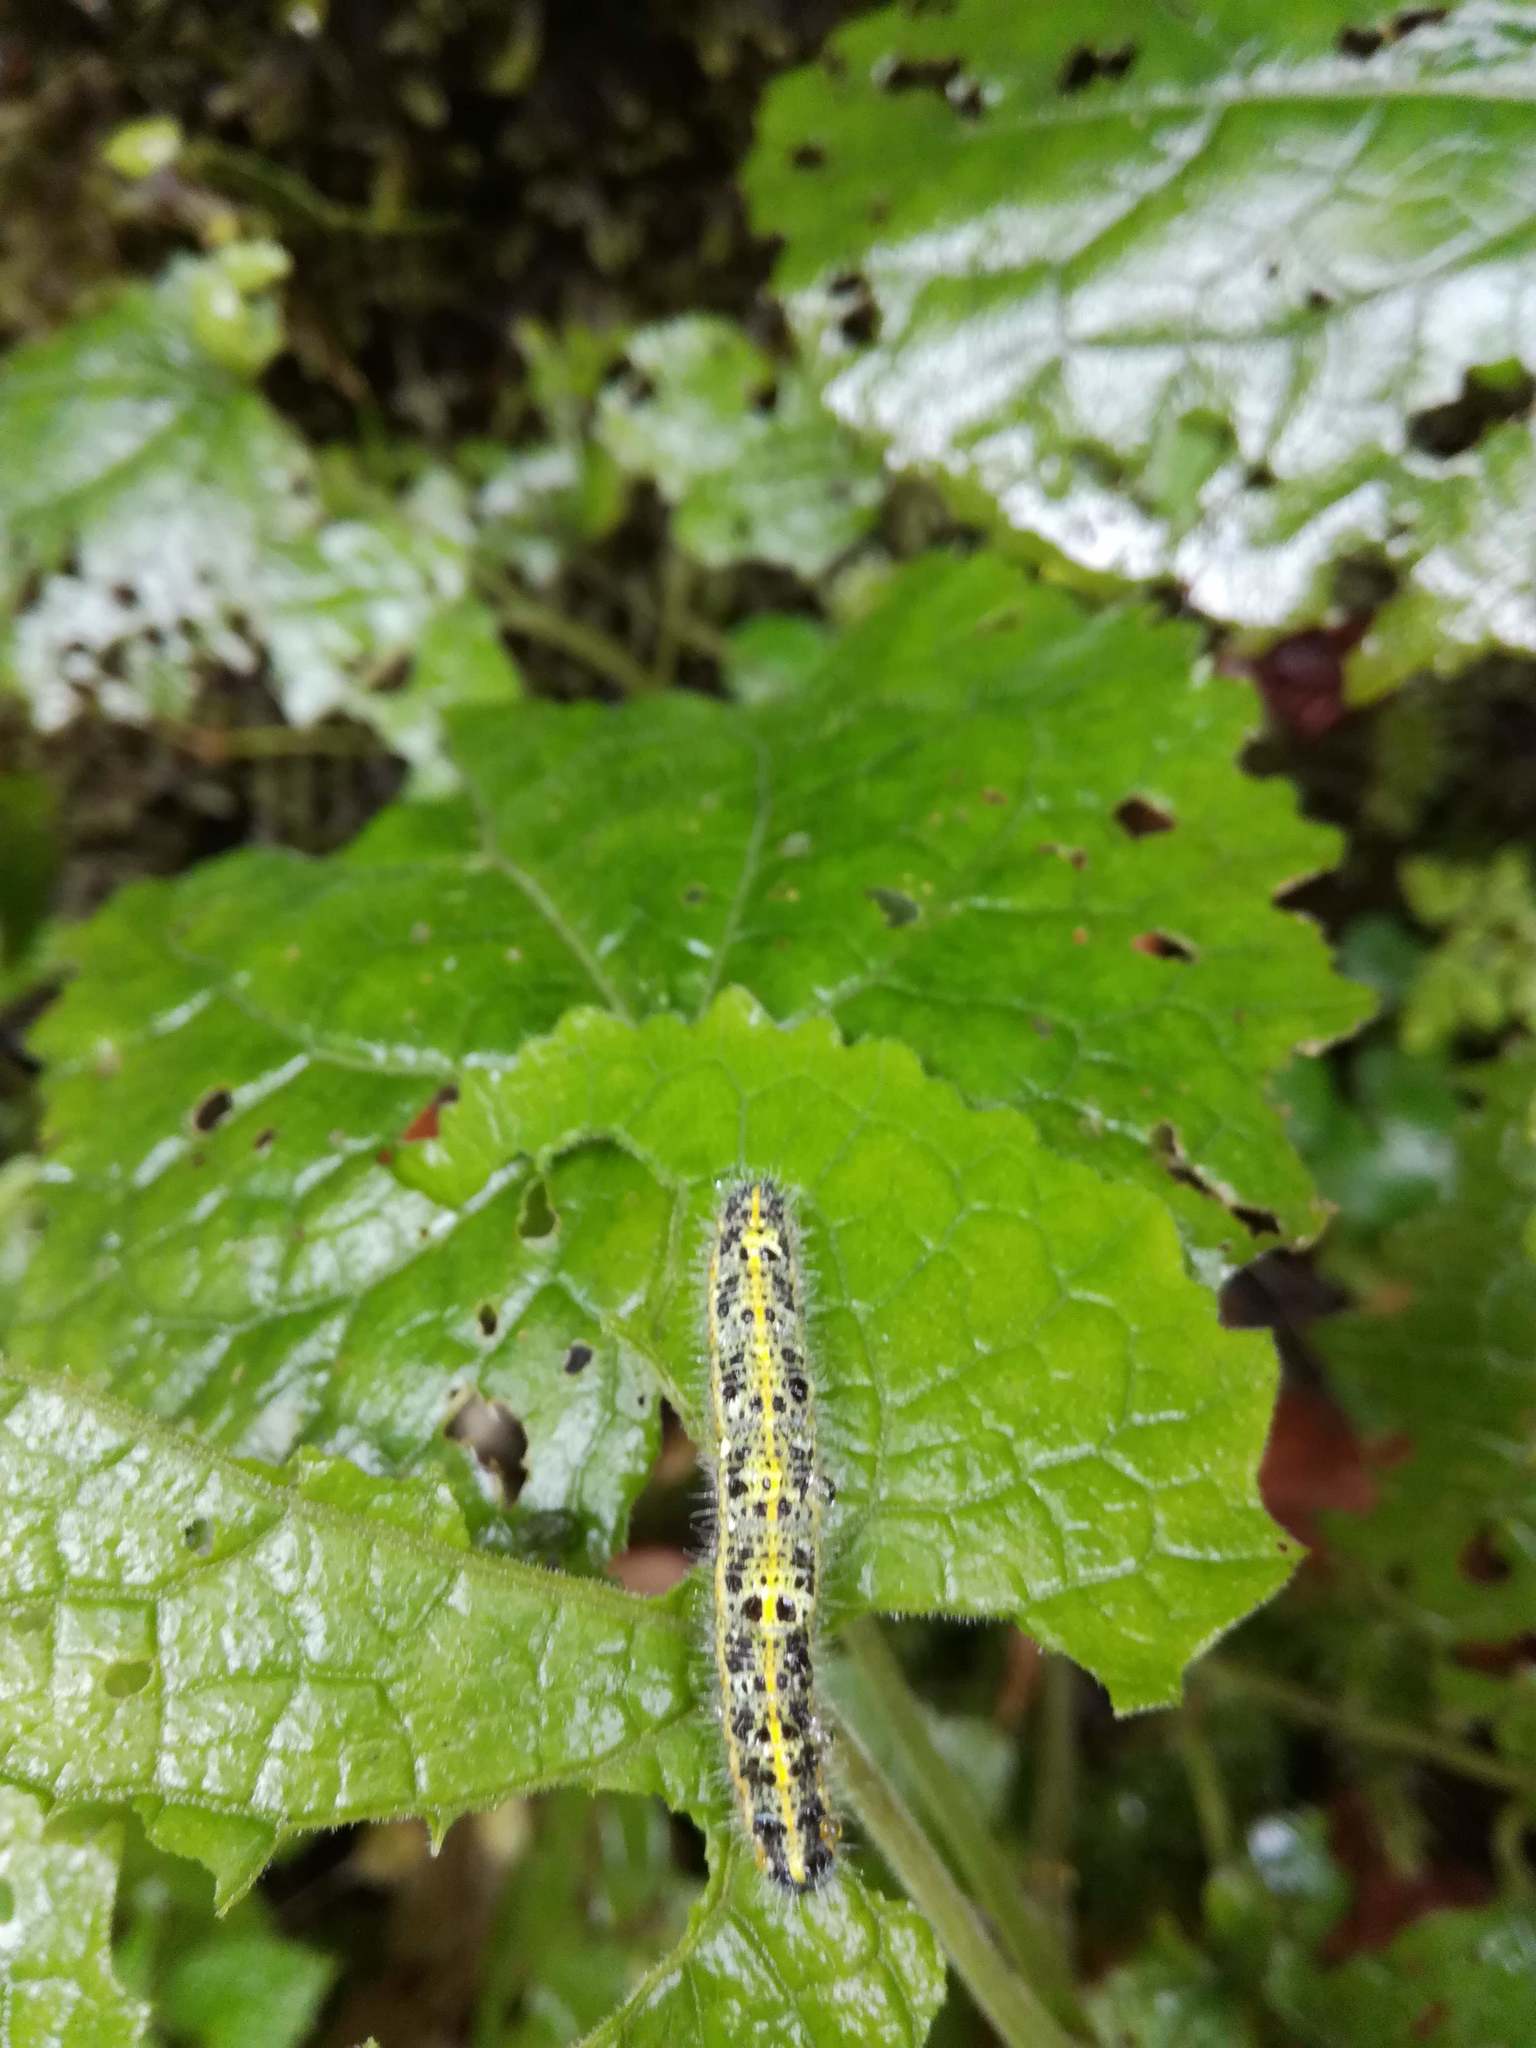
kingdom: Animalia
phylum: Arthropoda
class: Insecta
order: Lepidoptera
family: Pieridae
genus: Pieris
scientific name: Pieris brassicae
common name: Large white
